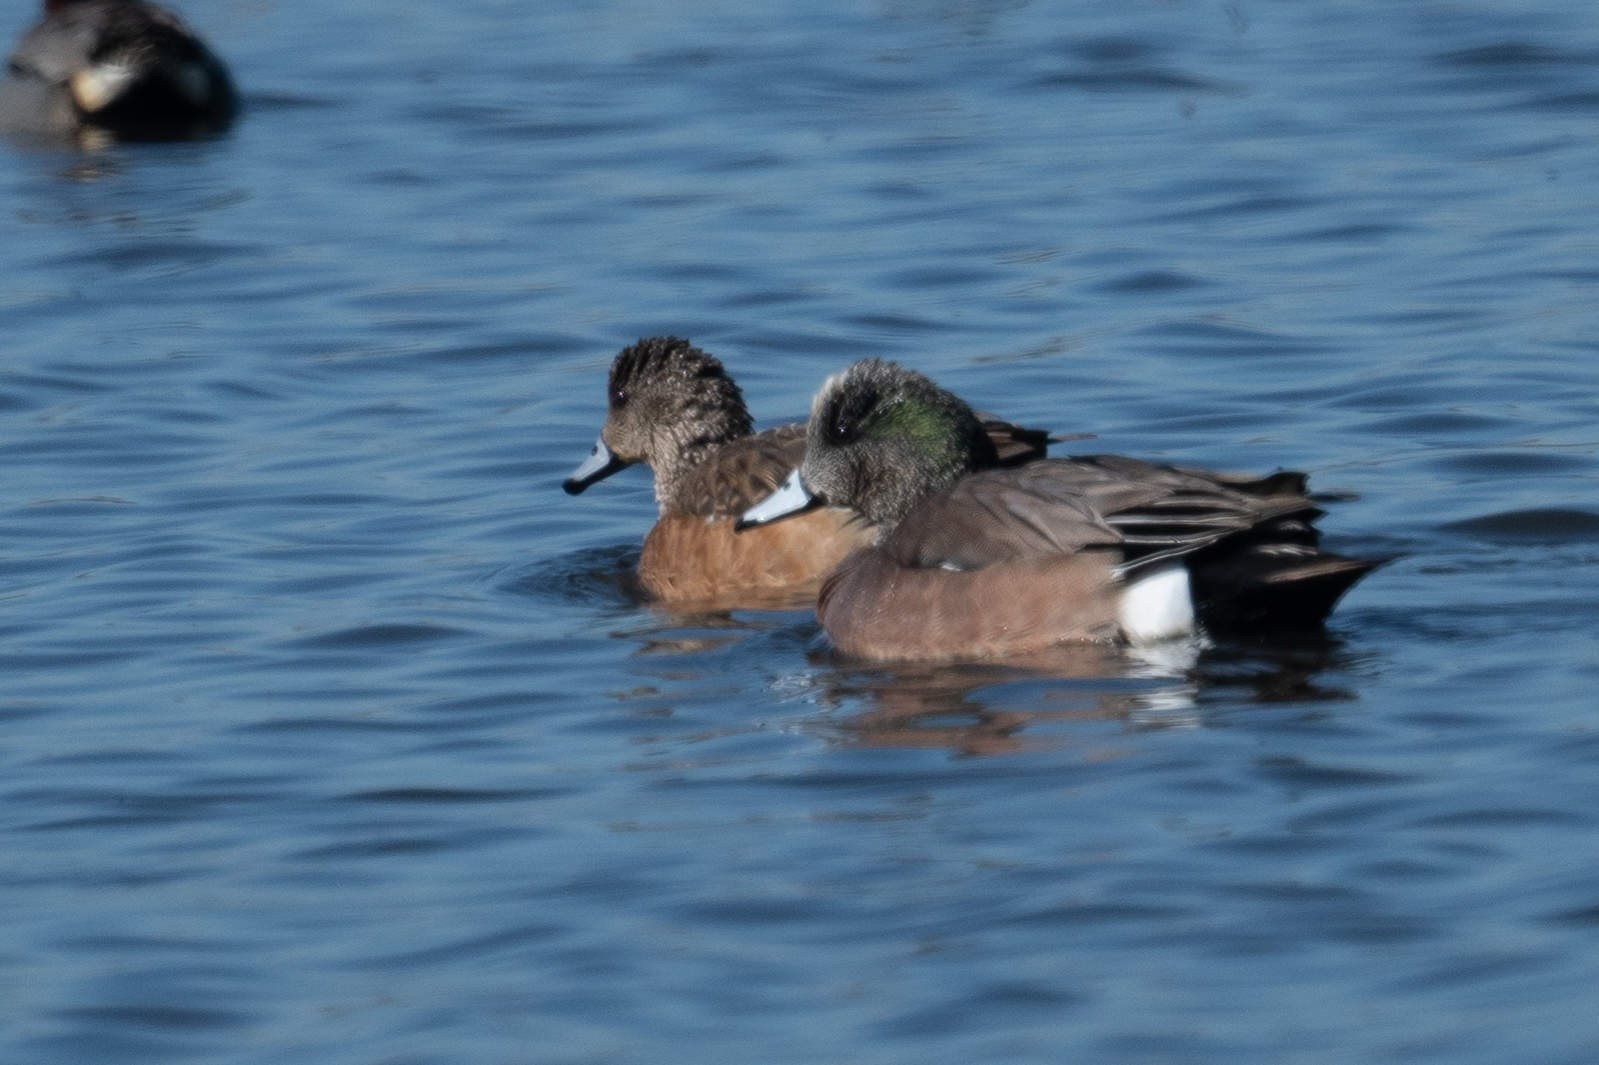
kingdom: Animalia
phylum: Chordata
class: Aves
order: Anseriformes
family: Anatidae
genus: Mareca
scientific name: Mareca americana
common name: American wigeon
